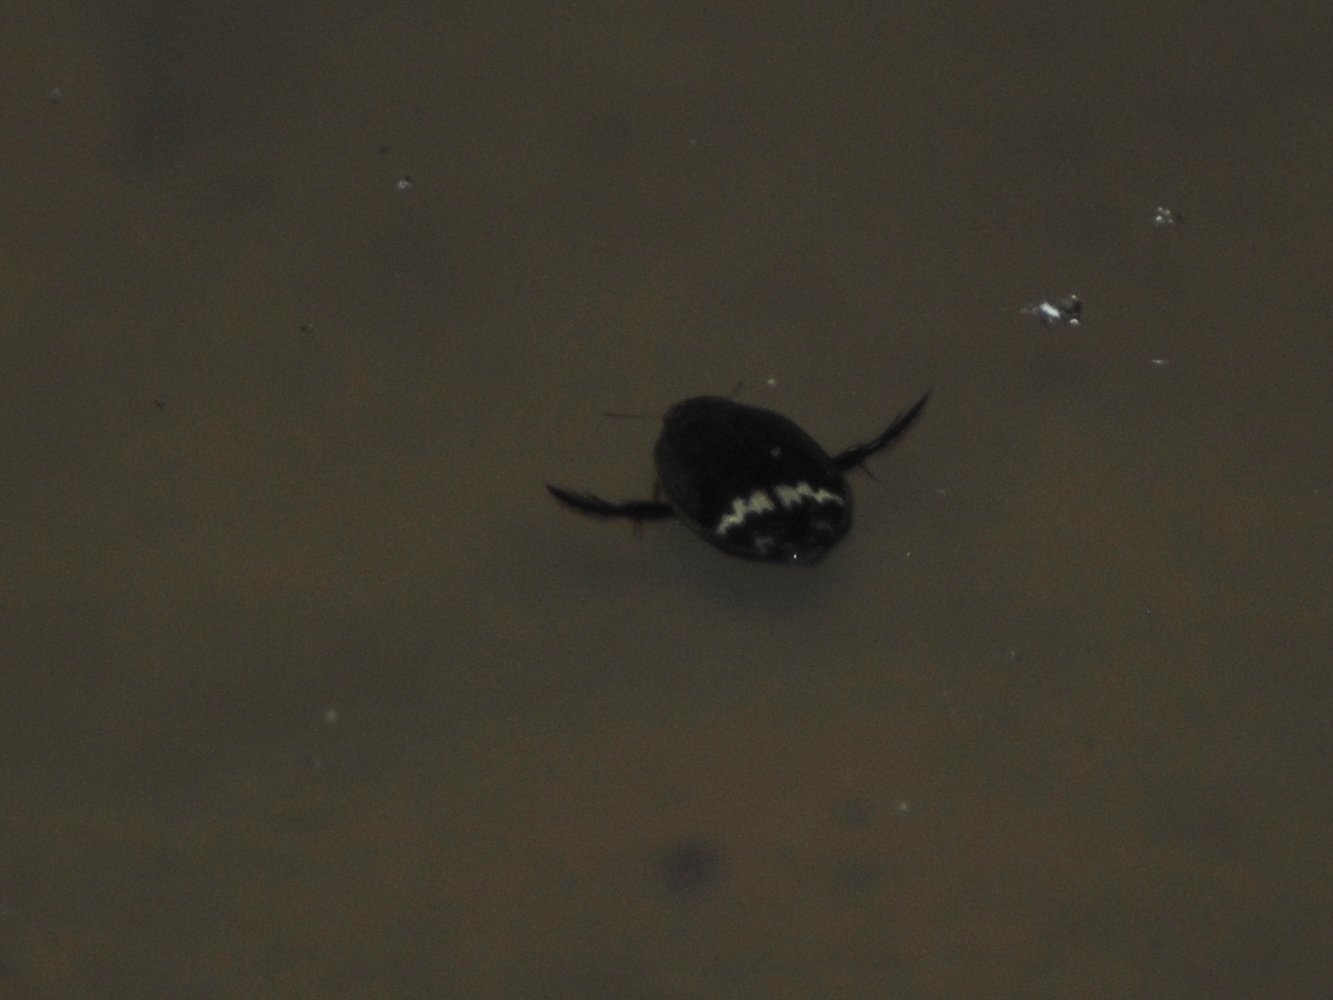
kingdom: Animalia
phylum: Arthropoda
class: Insecta
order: Coleoptera
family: Dytiscidae
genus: Acilius
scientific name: Acilius mediatus
